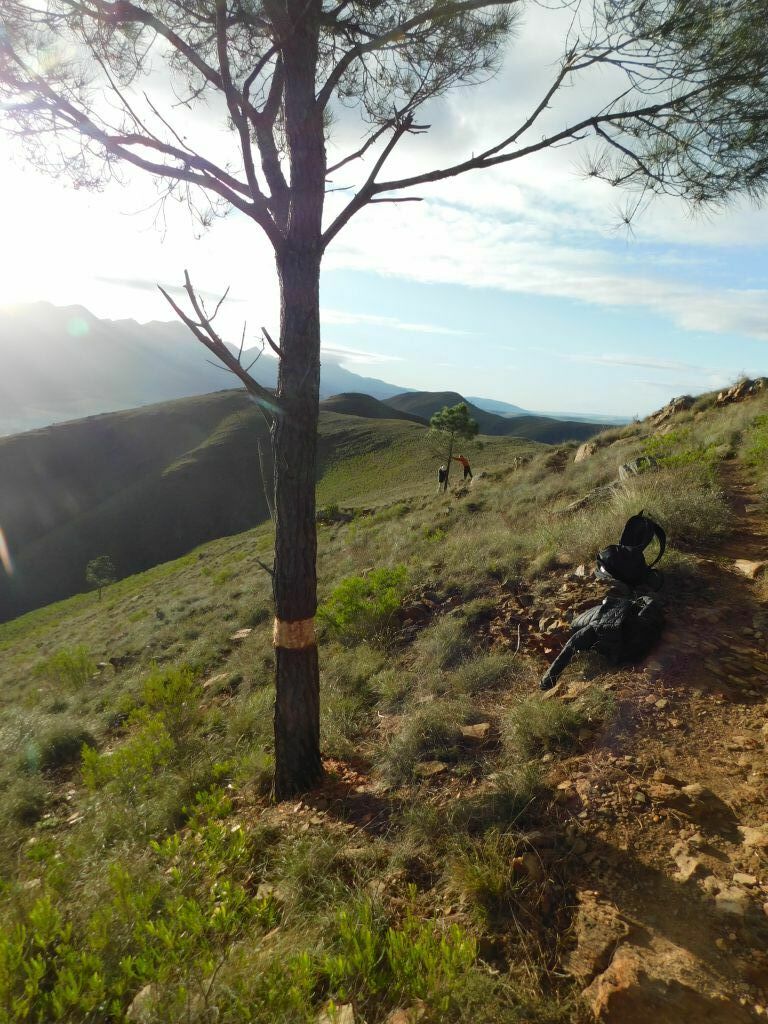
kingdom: Plantae
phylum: Tracheophyta
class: Pinopsida
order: Pinales
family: Pinaceae
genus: Pinus
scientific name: Pinus pinaster
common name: Maritime pine
